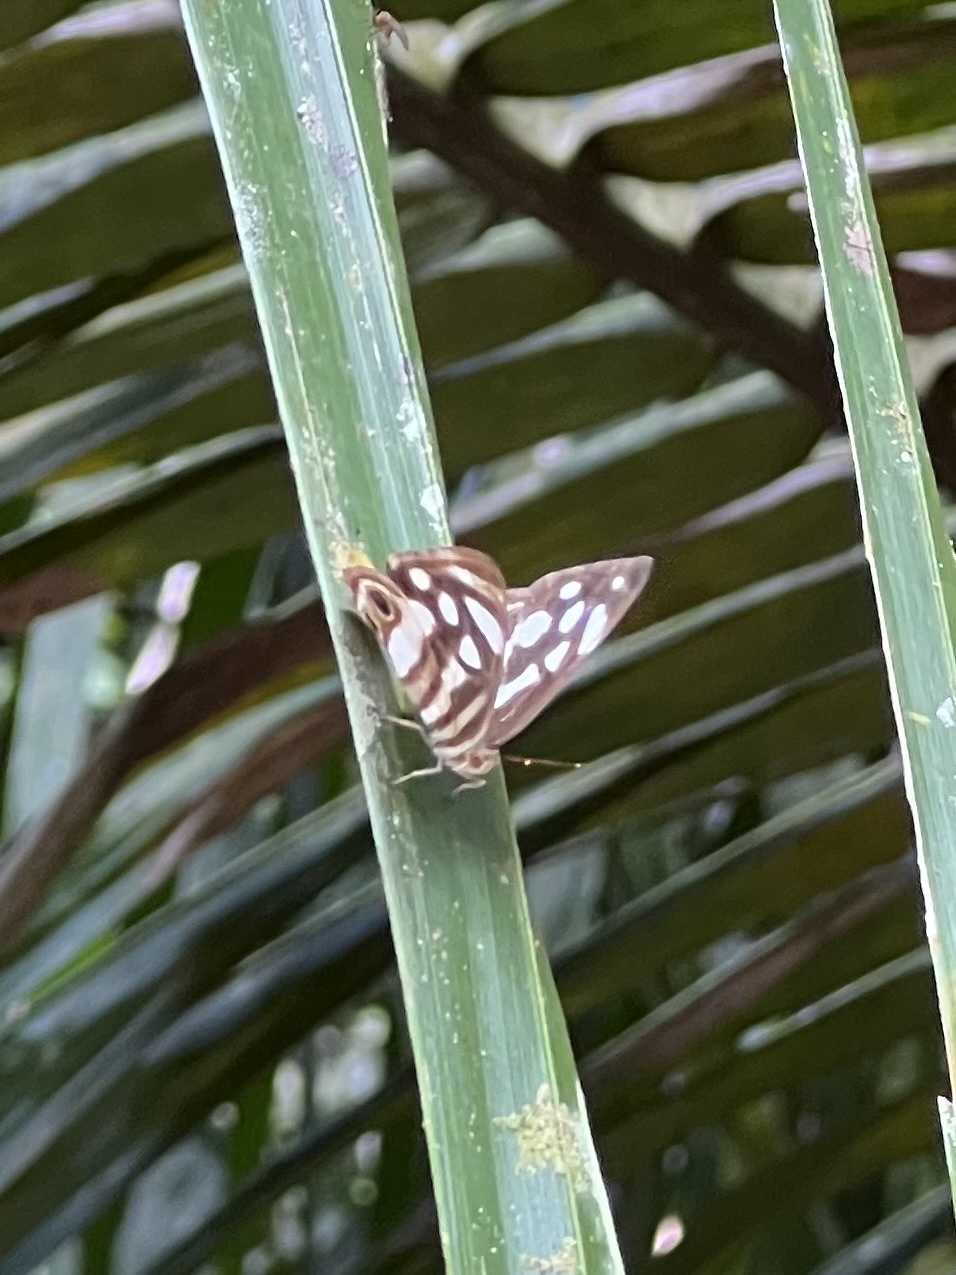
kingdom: Animalia
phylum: Arthropoda
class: Insecta
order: Lepidoptera
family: Nymphalidae
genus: Dynamine
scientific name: Dynamine mylitta
